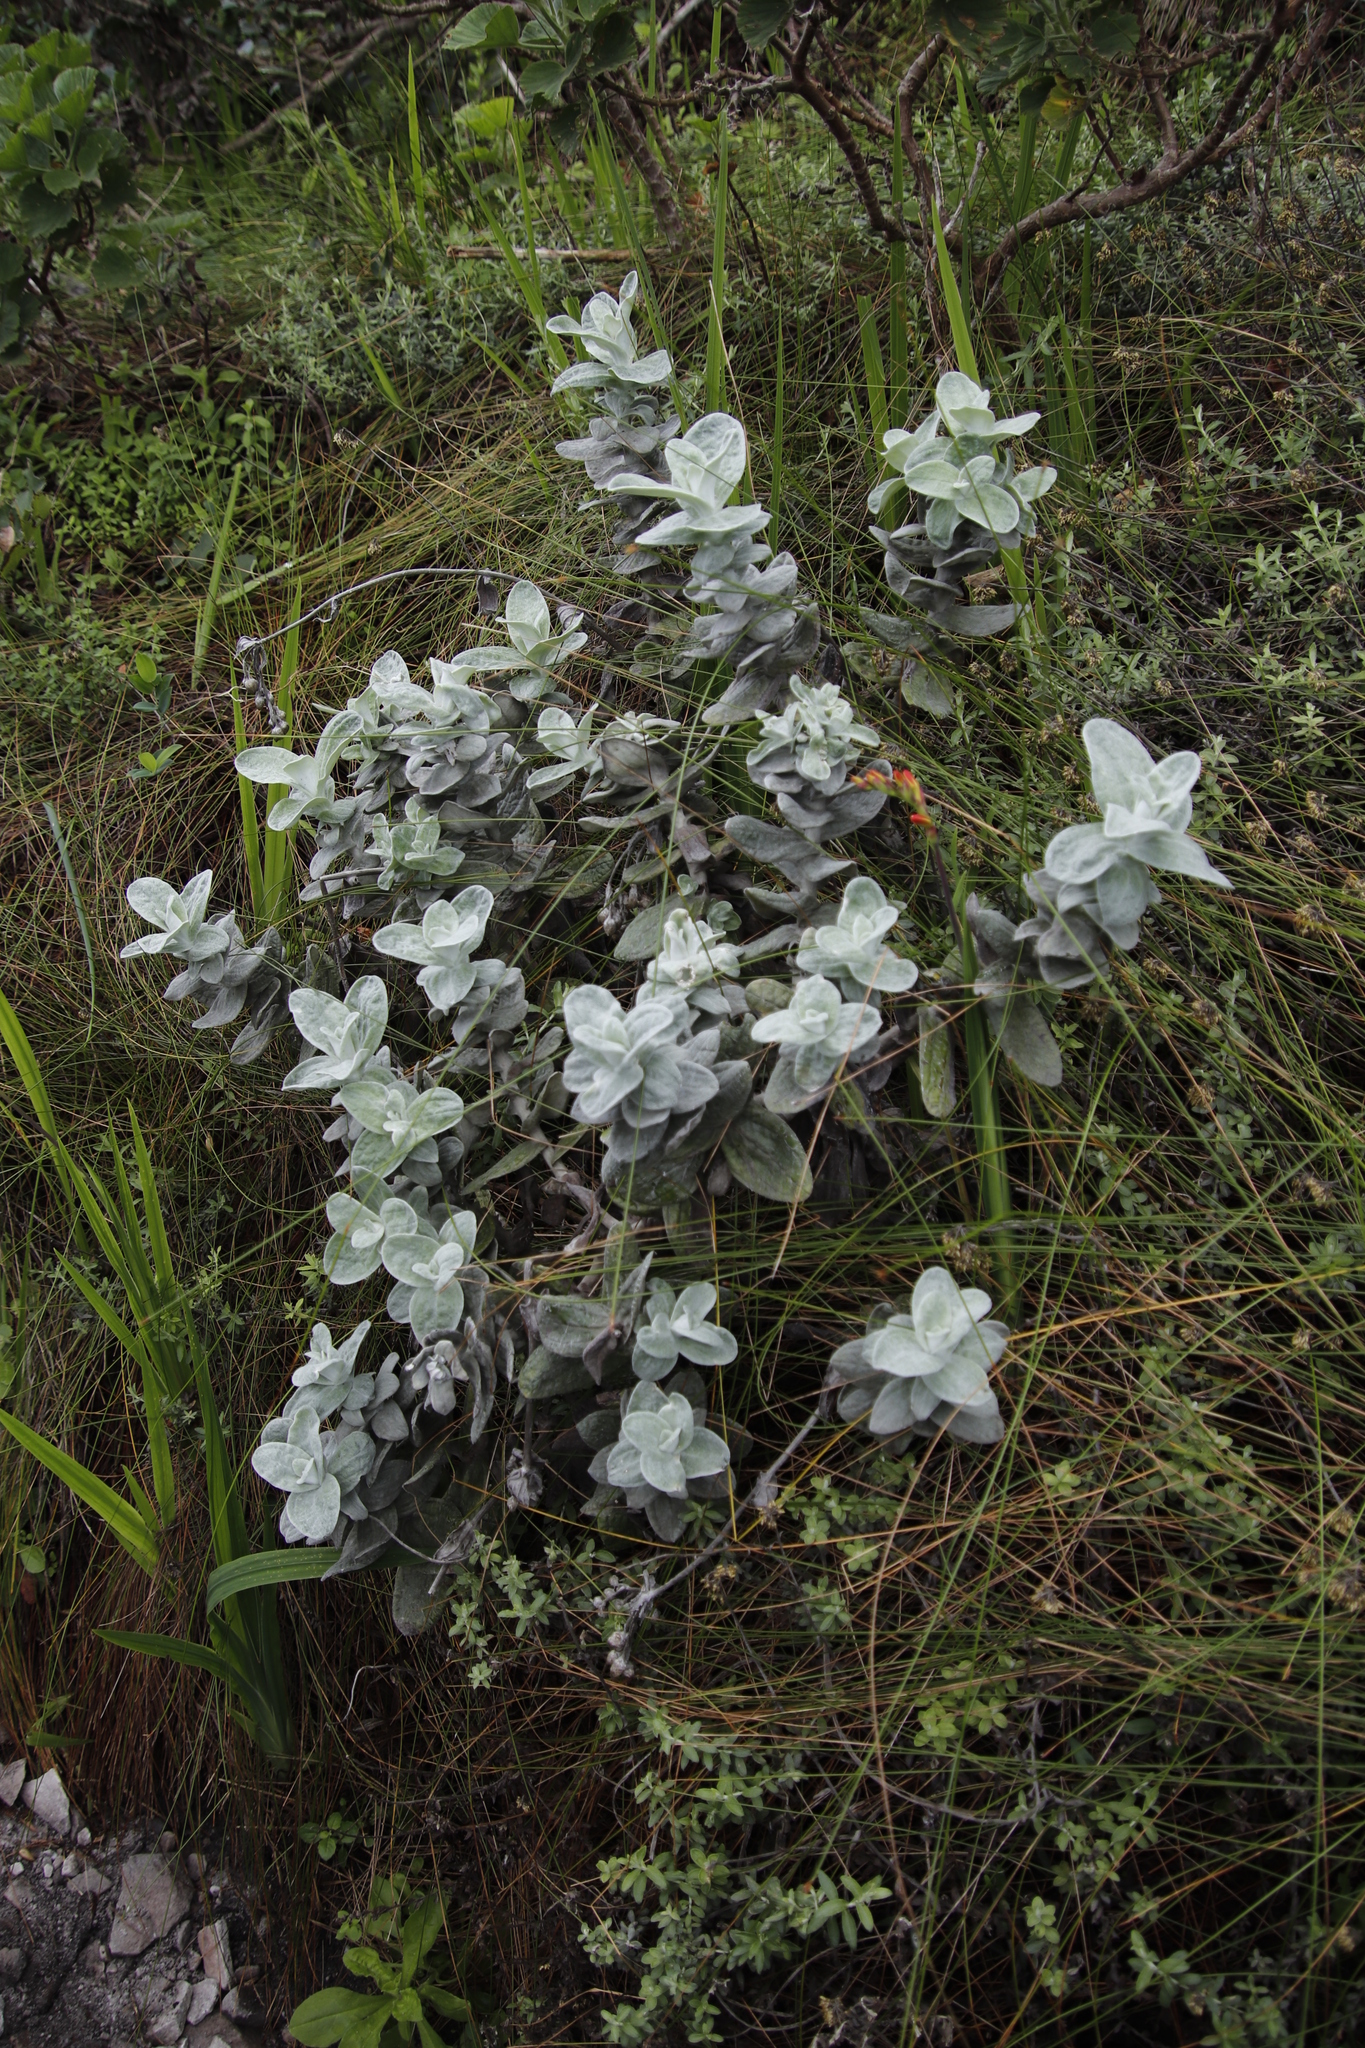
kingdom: Plantae
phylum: Tracheophyta
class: Magnoliopsida
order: Asterales
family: Asteraceae
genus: Helichrysum
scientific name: Helichrysum fruticans
